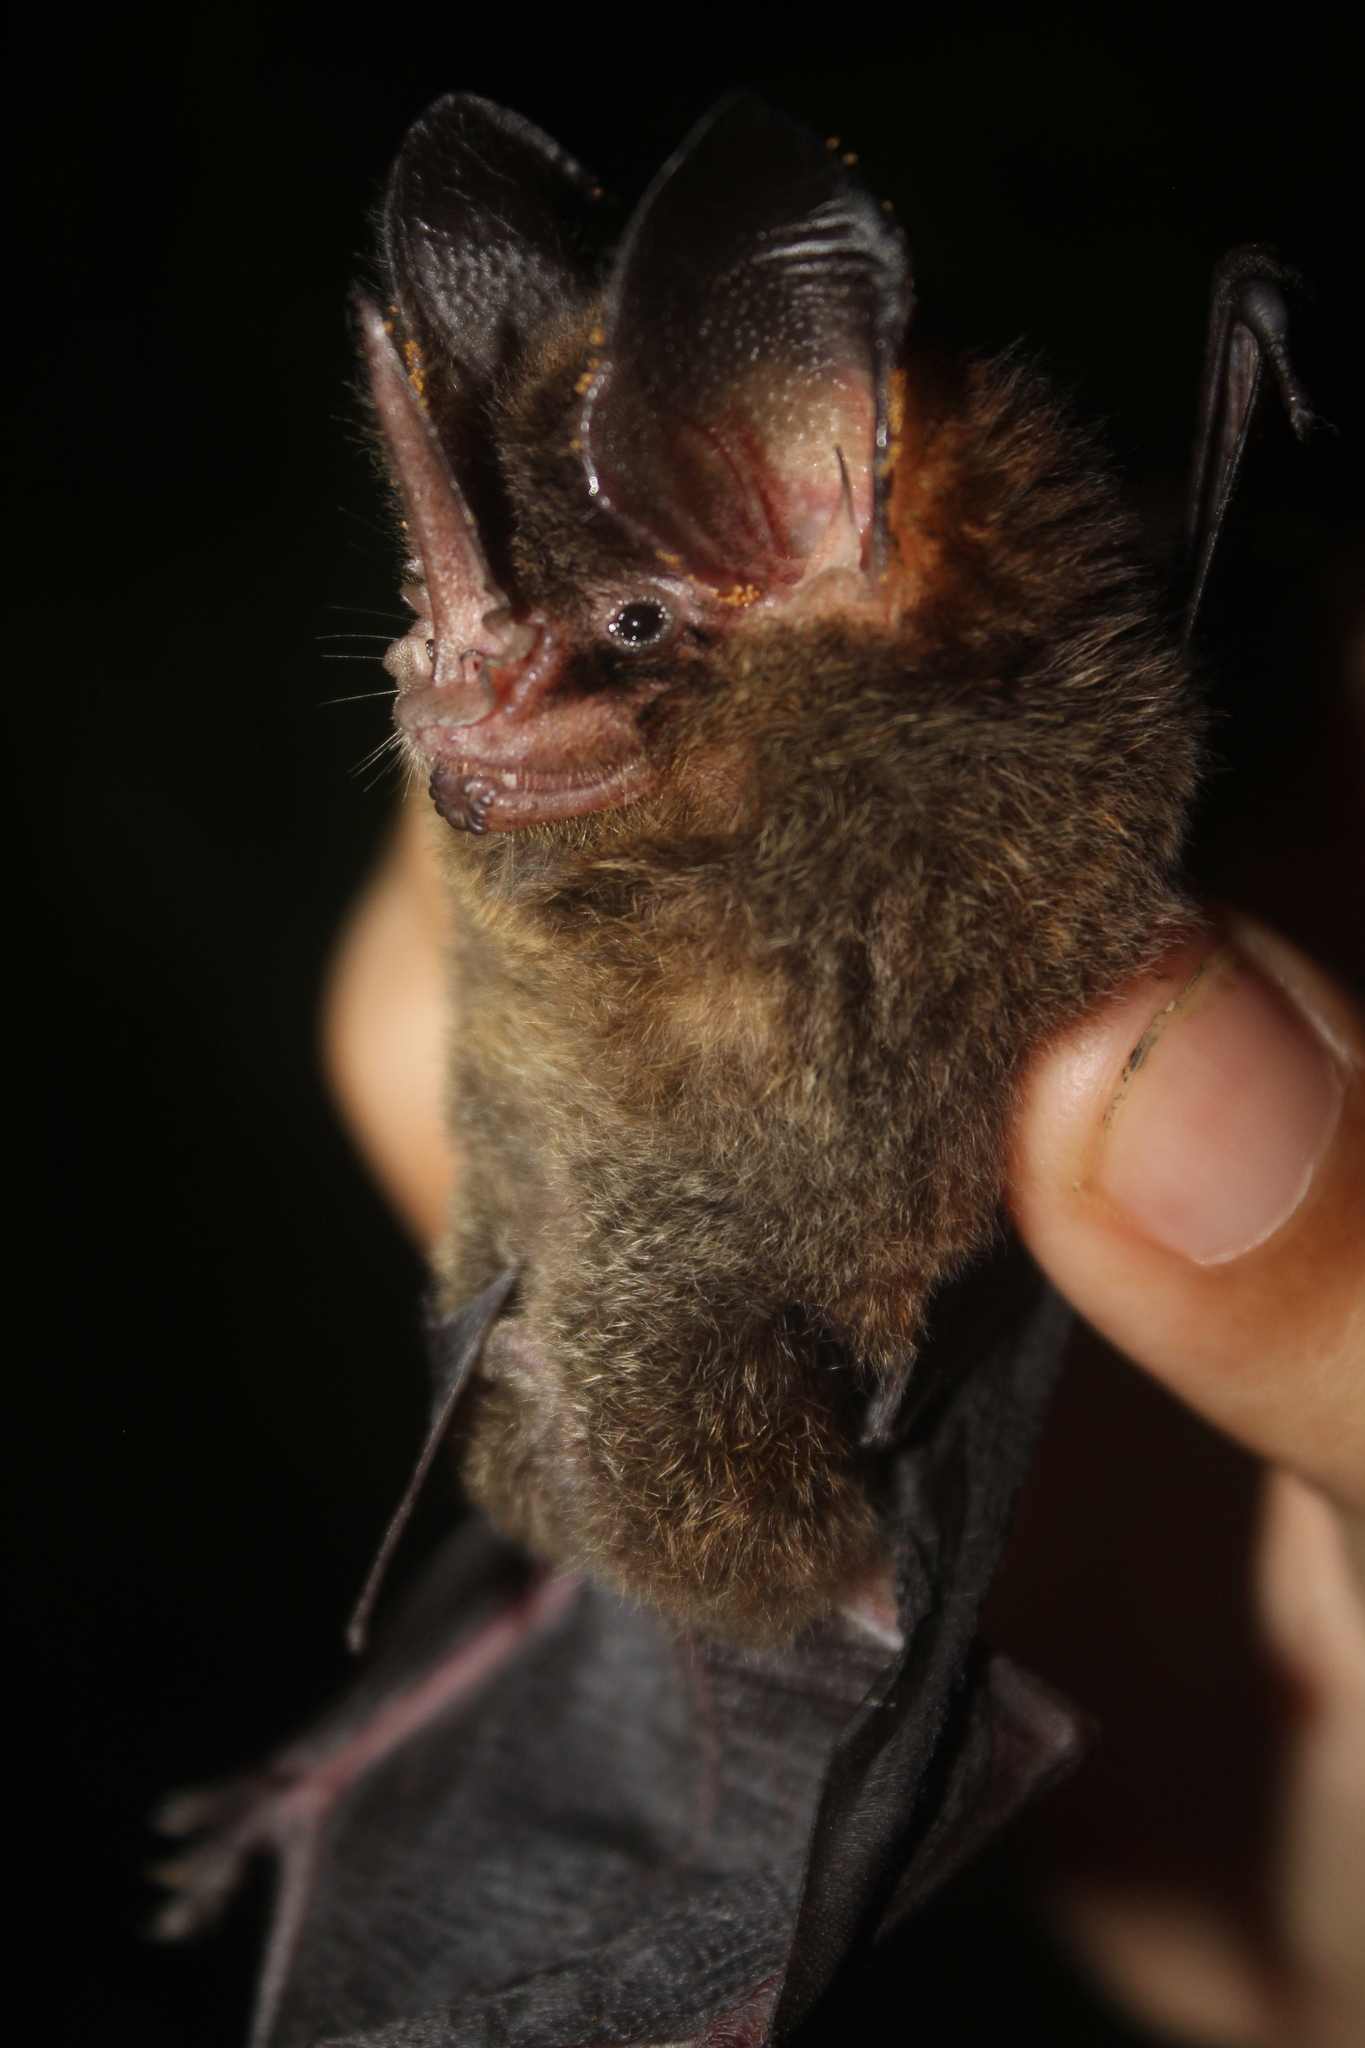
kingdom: Animalia
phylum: Chordata
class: Mammalia
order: Chiroptera
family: Phyllostomidae
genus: Gardnerycteris
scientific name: Gardnerycteris keenani
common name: Keenan's hairy-nosed bat
